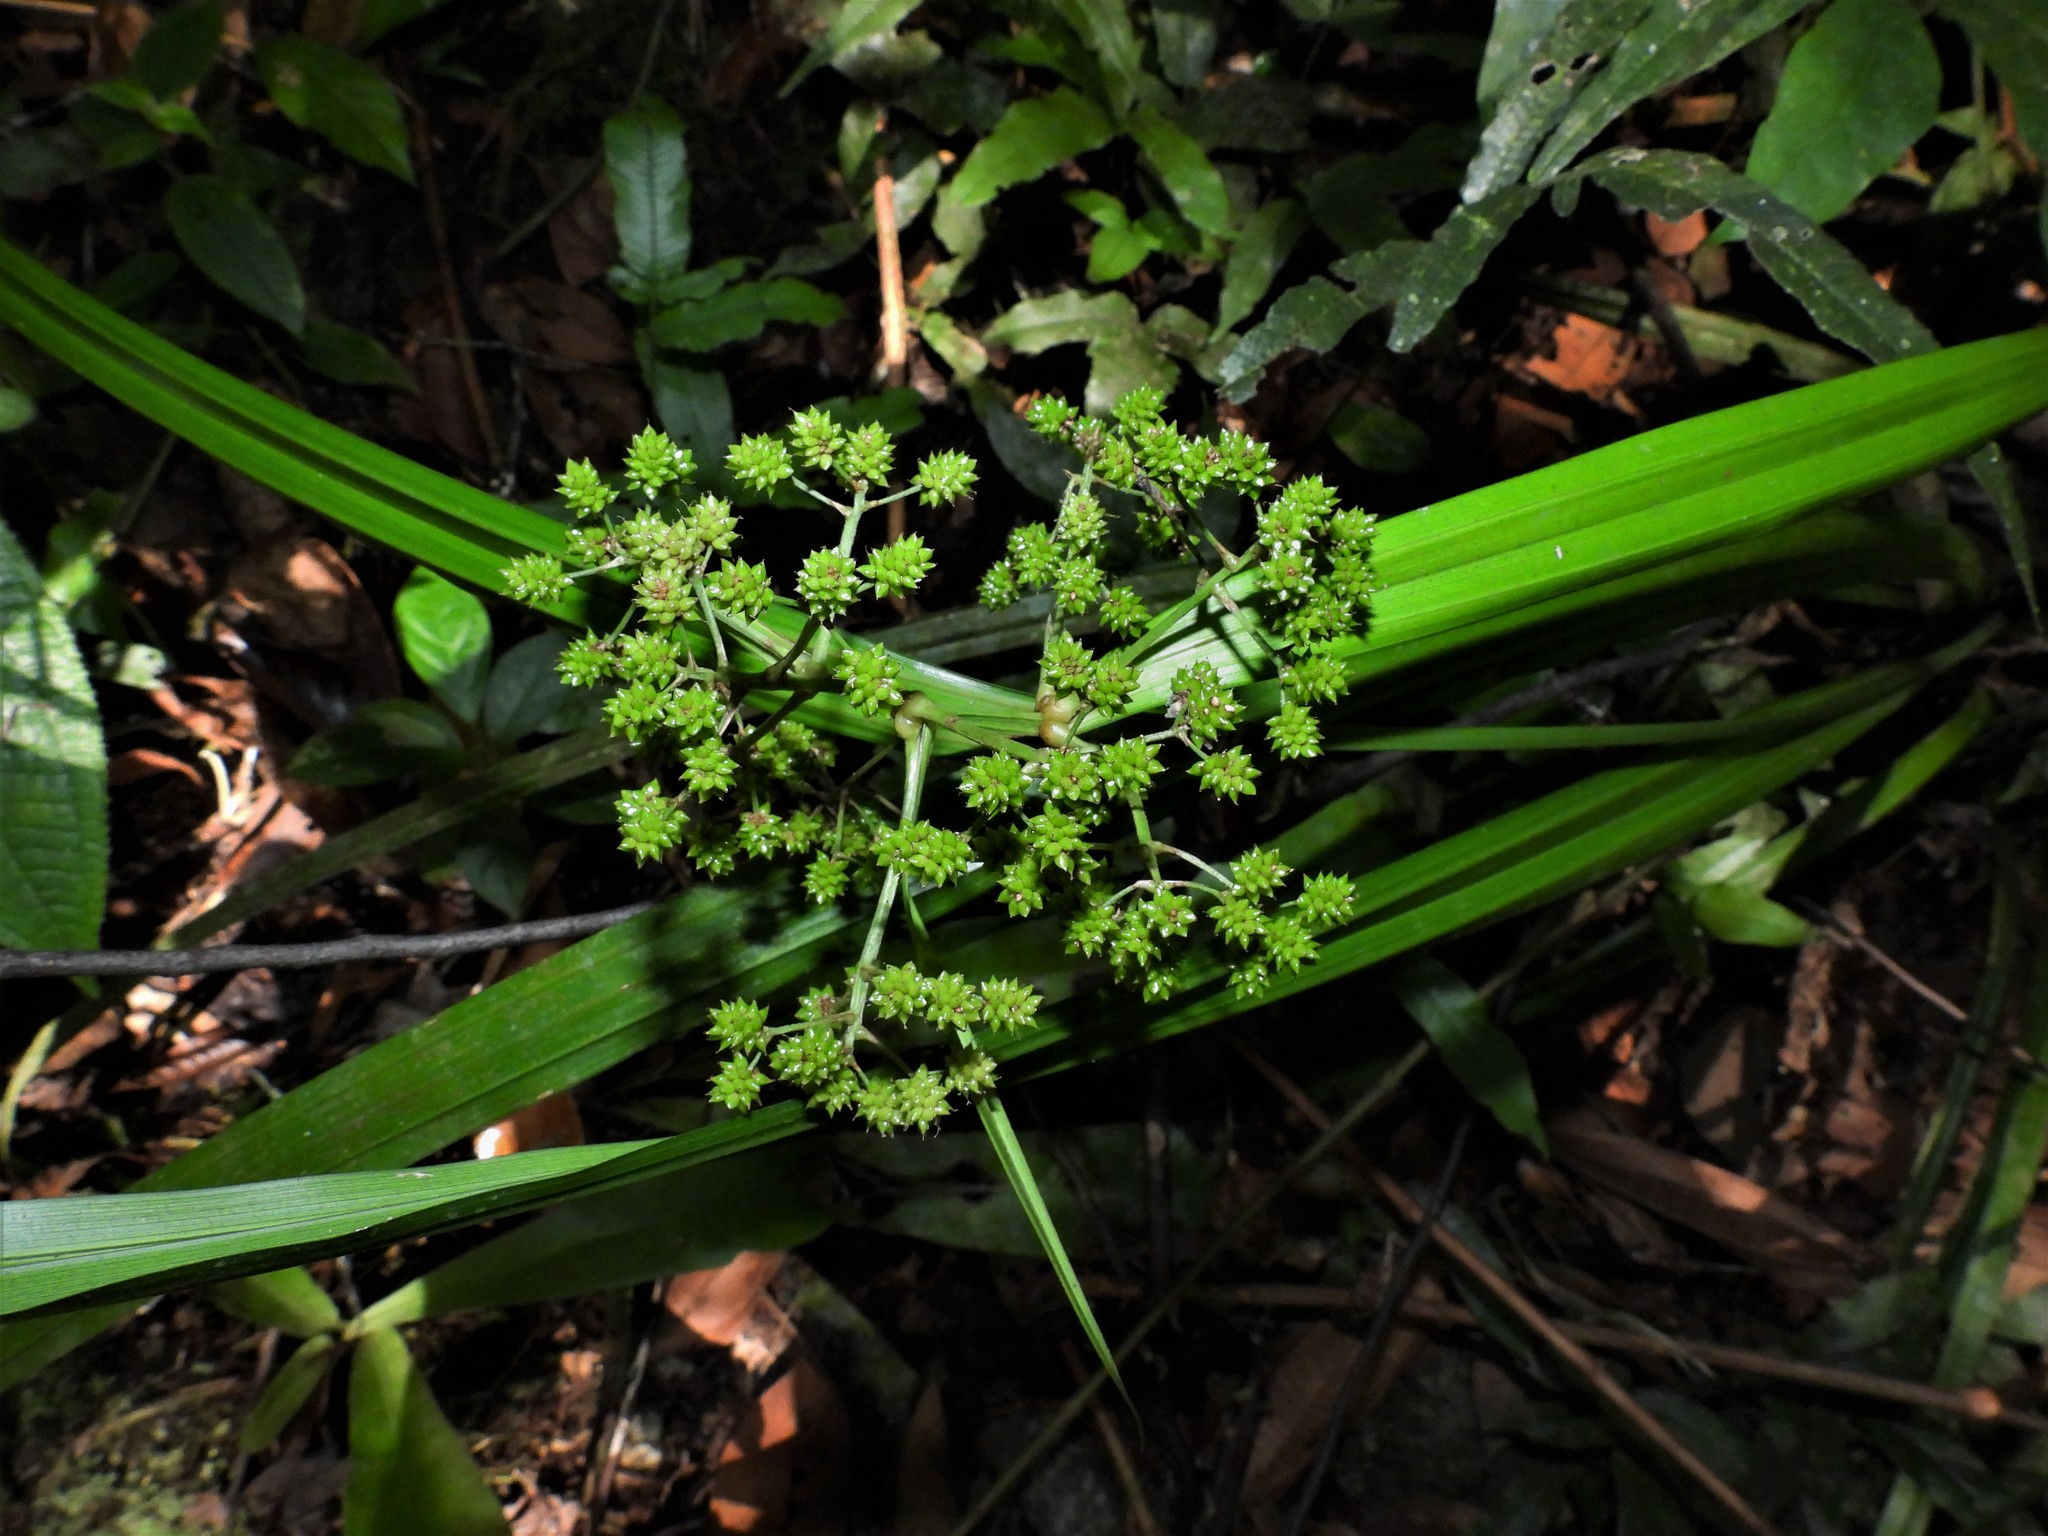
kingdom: Plantae
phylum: Tracheophyta
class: Liliopsida
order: Poales
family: Cyperaceae
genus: Hypolytrum
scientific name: Hypolytrum nemorum
